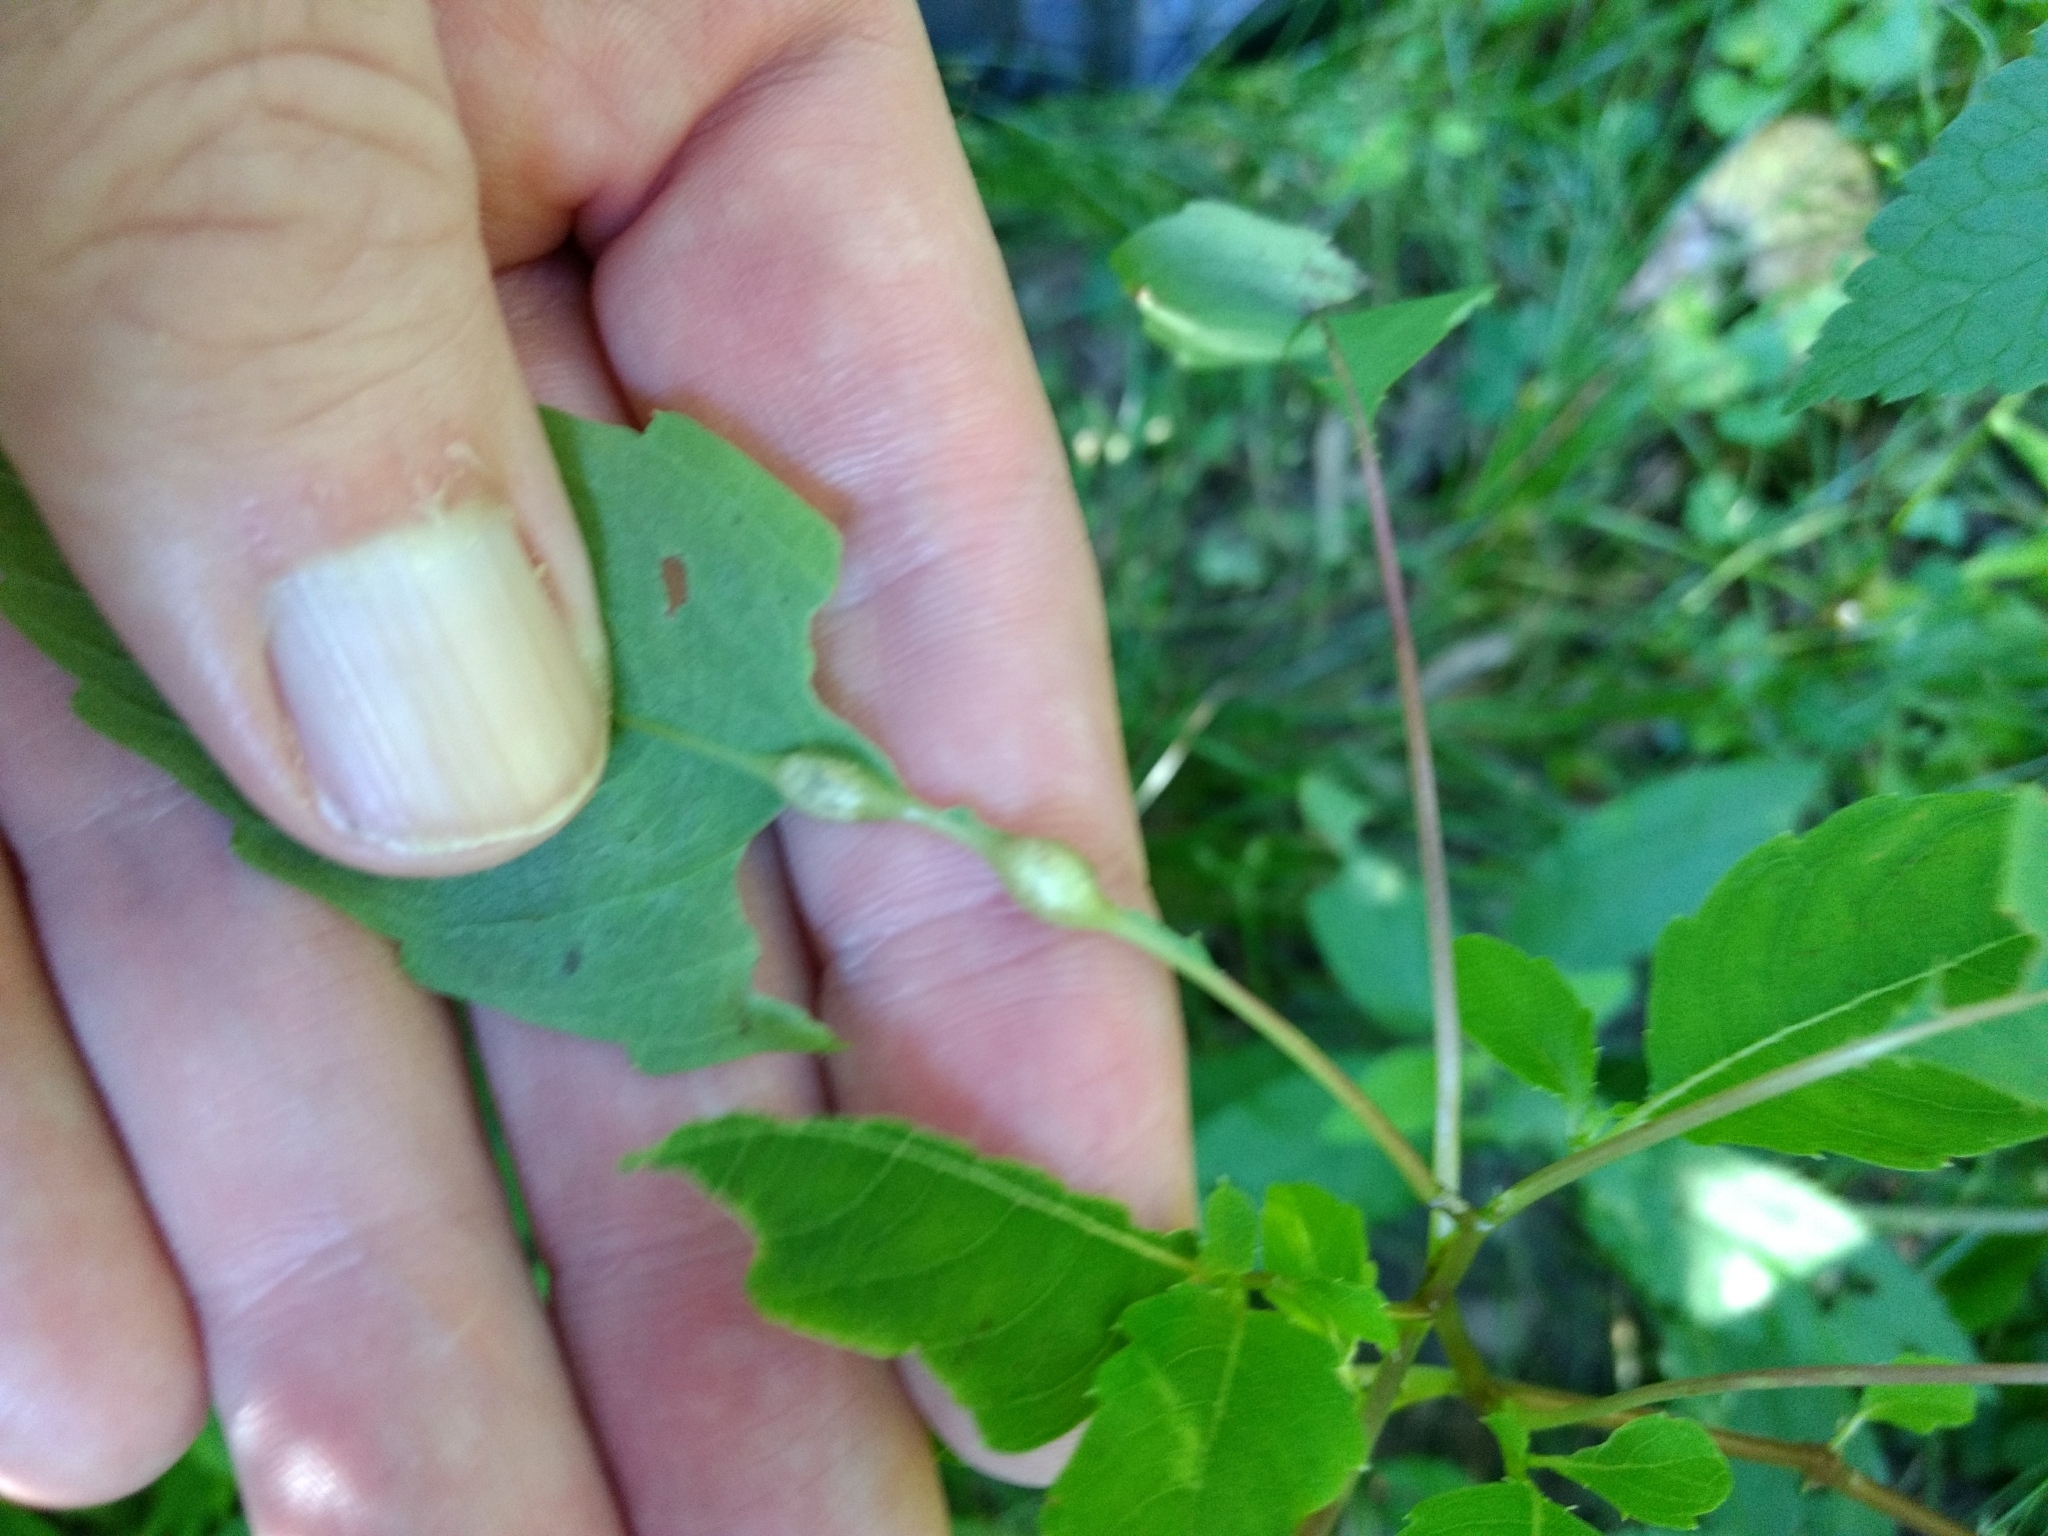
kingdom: Animalia
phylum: Arthropoda
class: Insecta
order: Diptera
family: Cecidomyiidae
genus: Neolasioptera
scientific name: Neolasioptera impatientifolia
